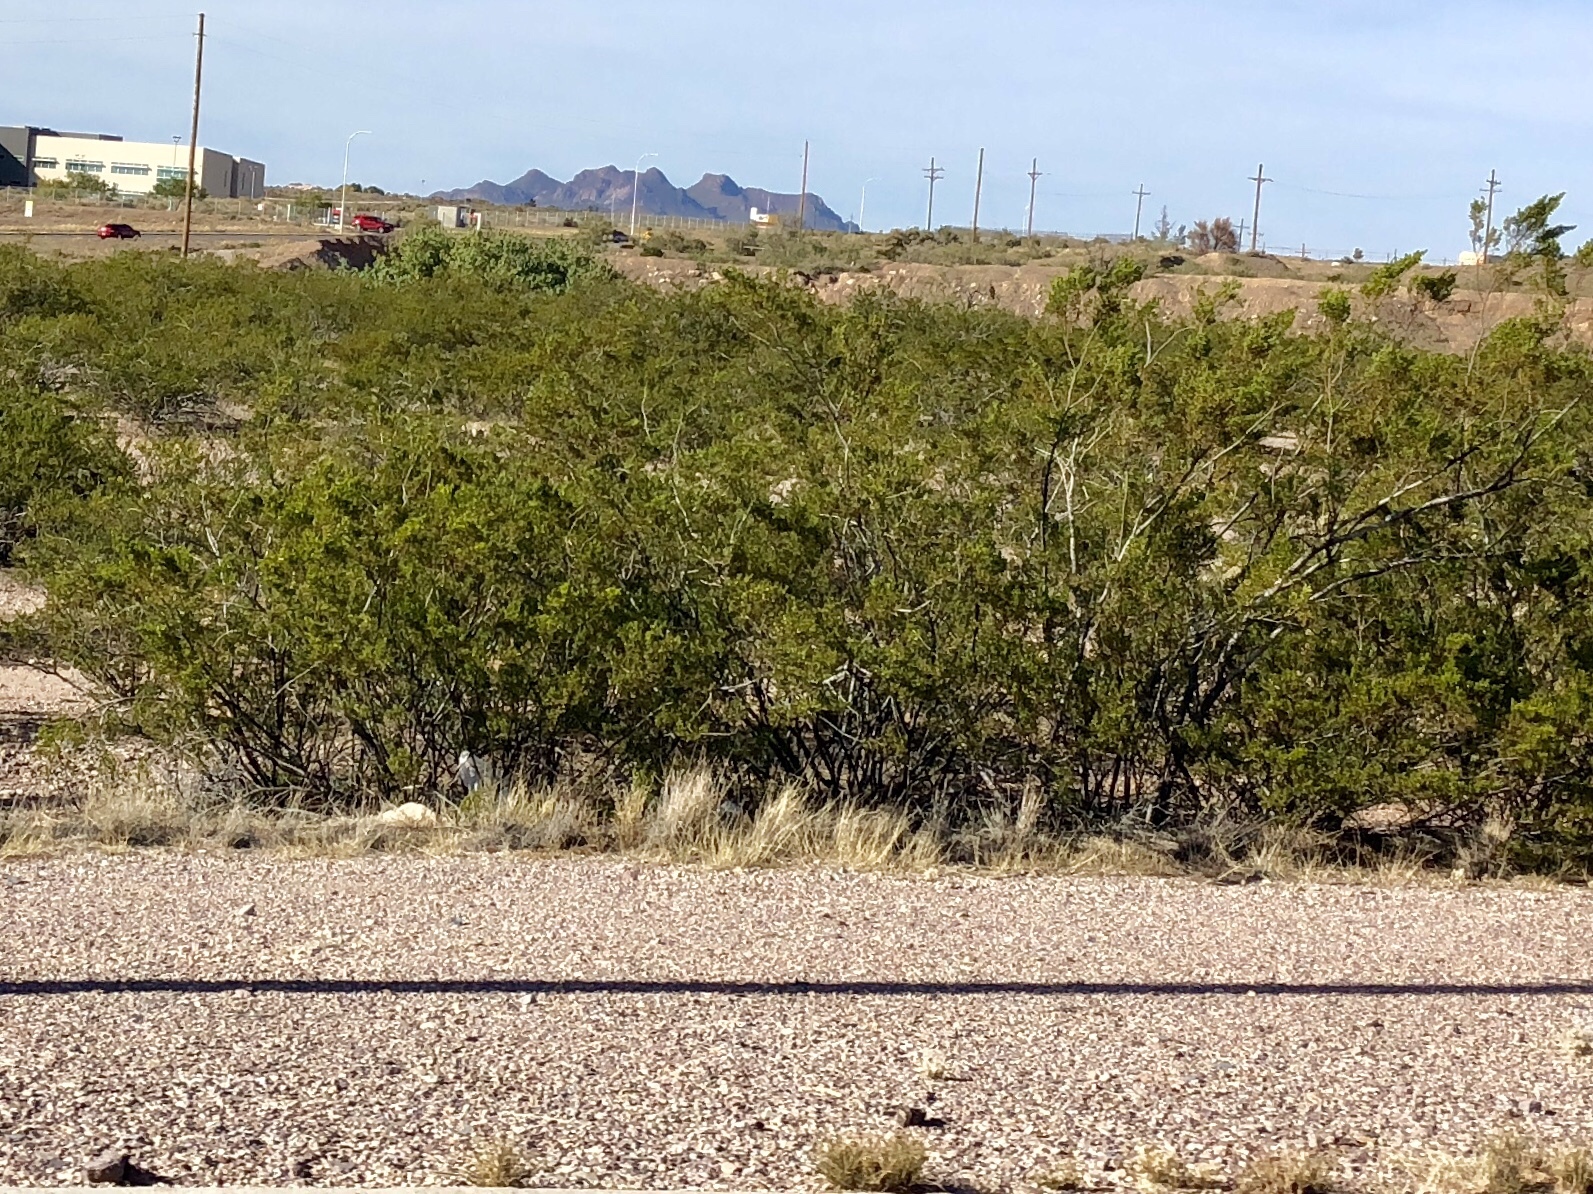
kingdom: Plantae
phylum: Tracheophyta
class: Magnoliopsida
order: Zygophyllales
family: Zygophyllaceae
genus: Larrea
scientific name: Larrea tridentata
